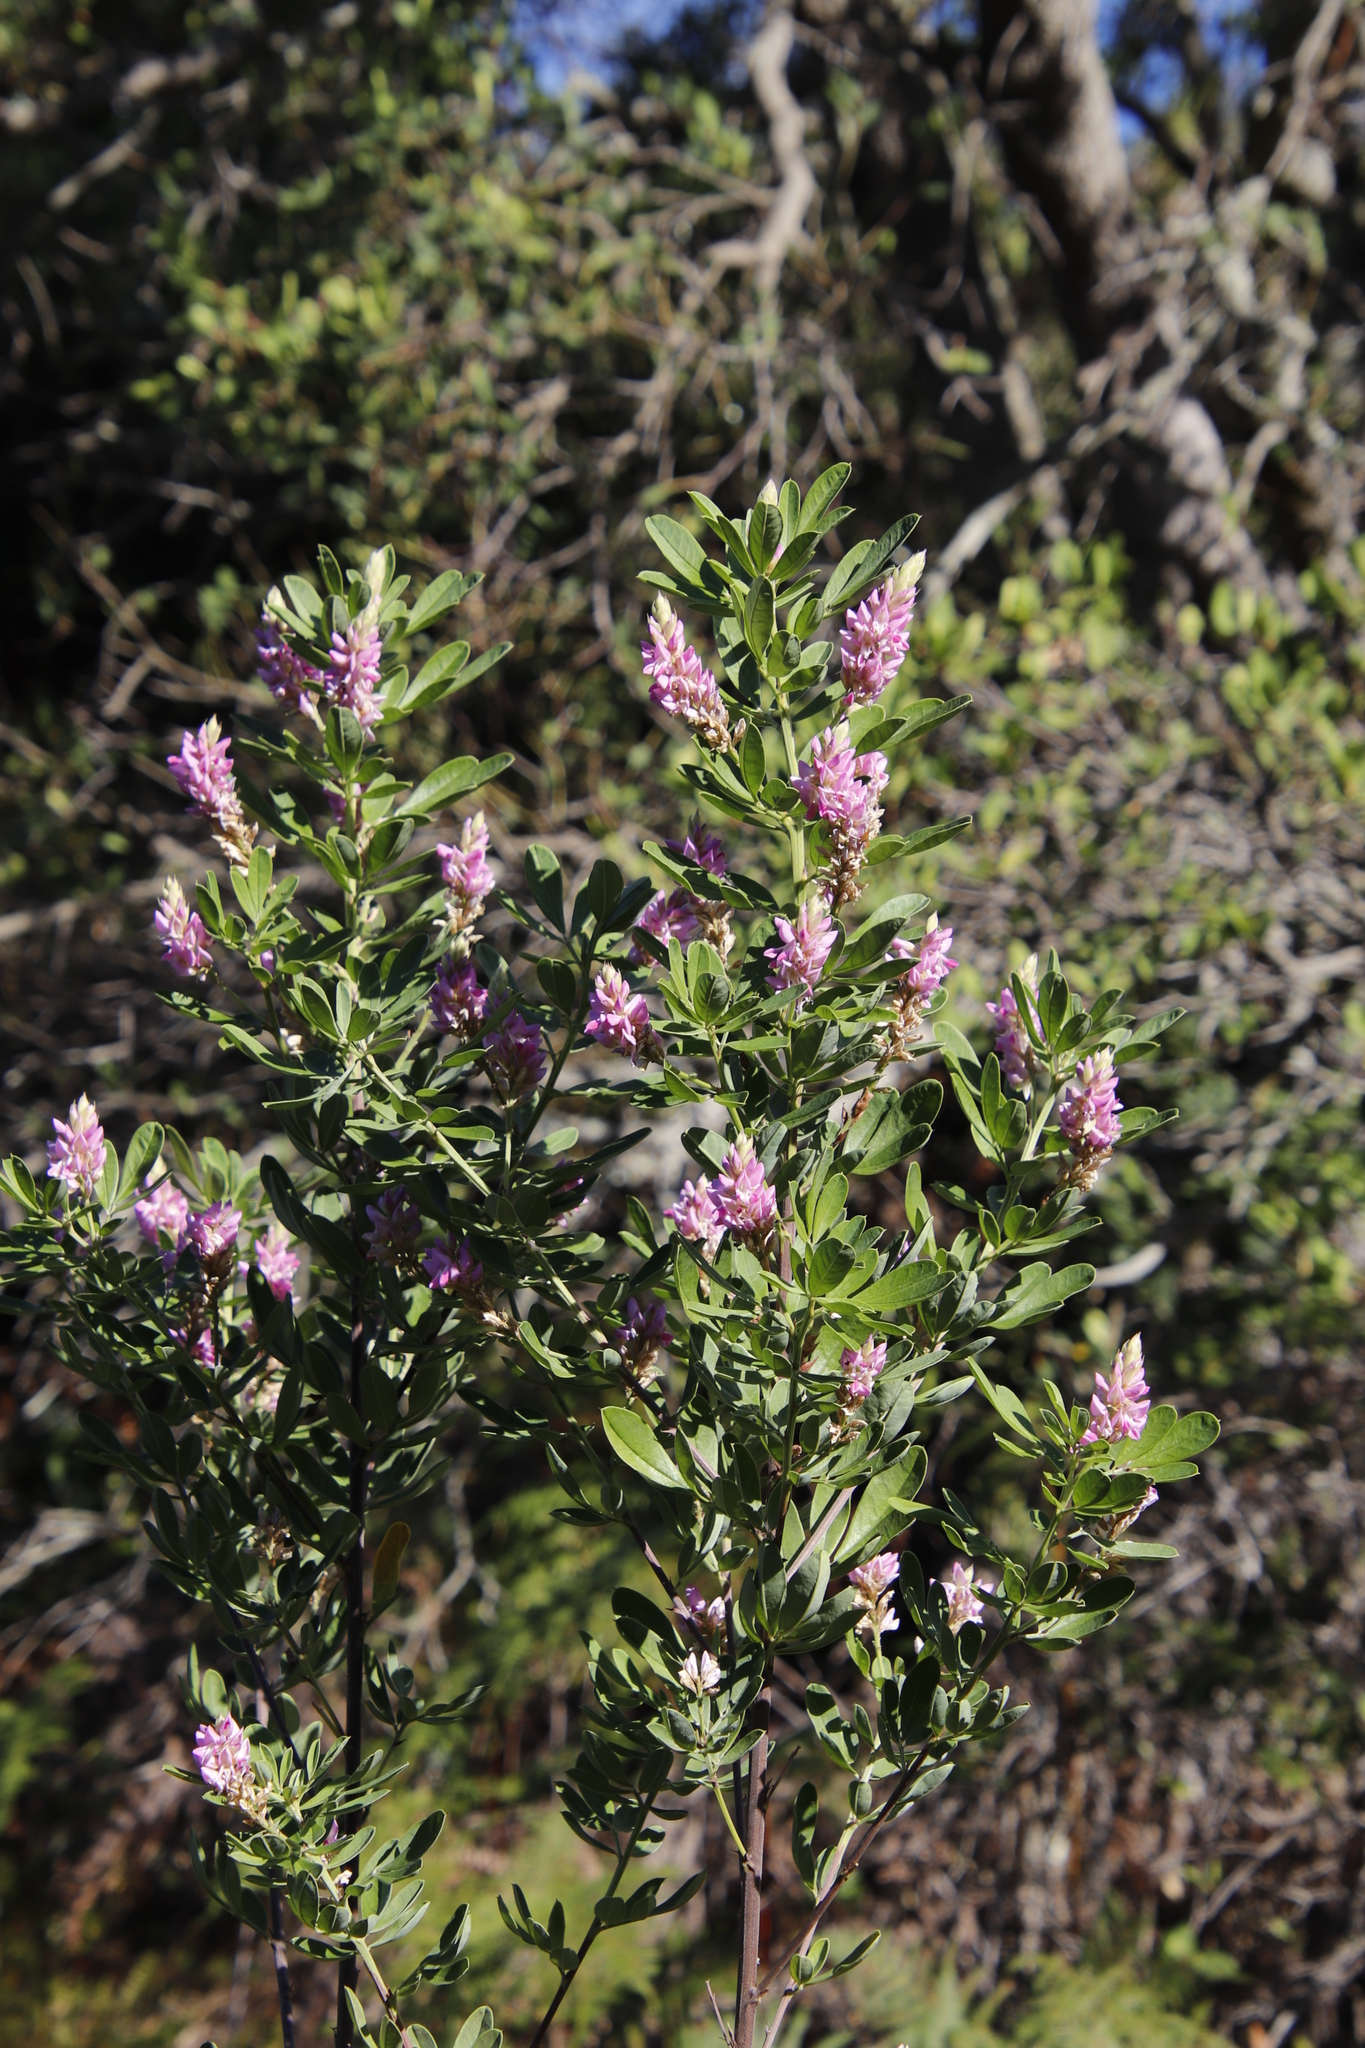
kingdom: Plantae
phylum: Tracheophyta
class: Magnoliopsida
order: Fabales
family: Fabaceae
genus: Indigofera
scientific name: Indigofera cytisoides
